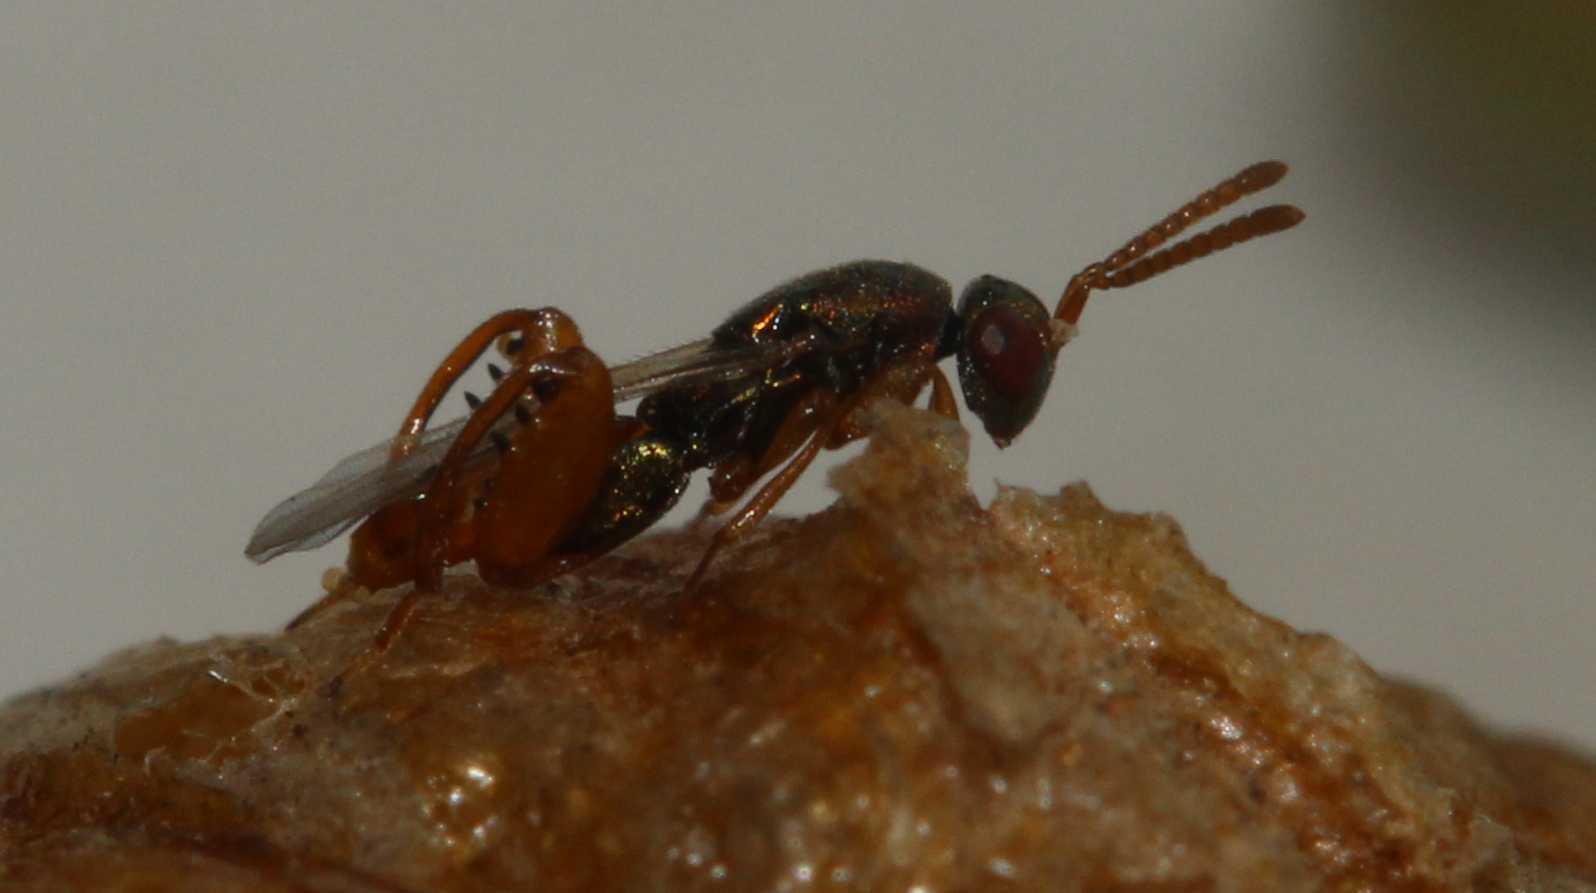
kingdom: Animalia
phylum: Arthropoda
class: Insecta
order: Hymenoptera
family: Torymidae
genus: Podagrion
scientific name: Podagrion crassiclava
